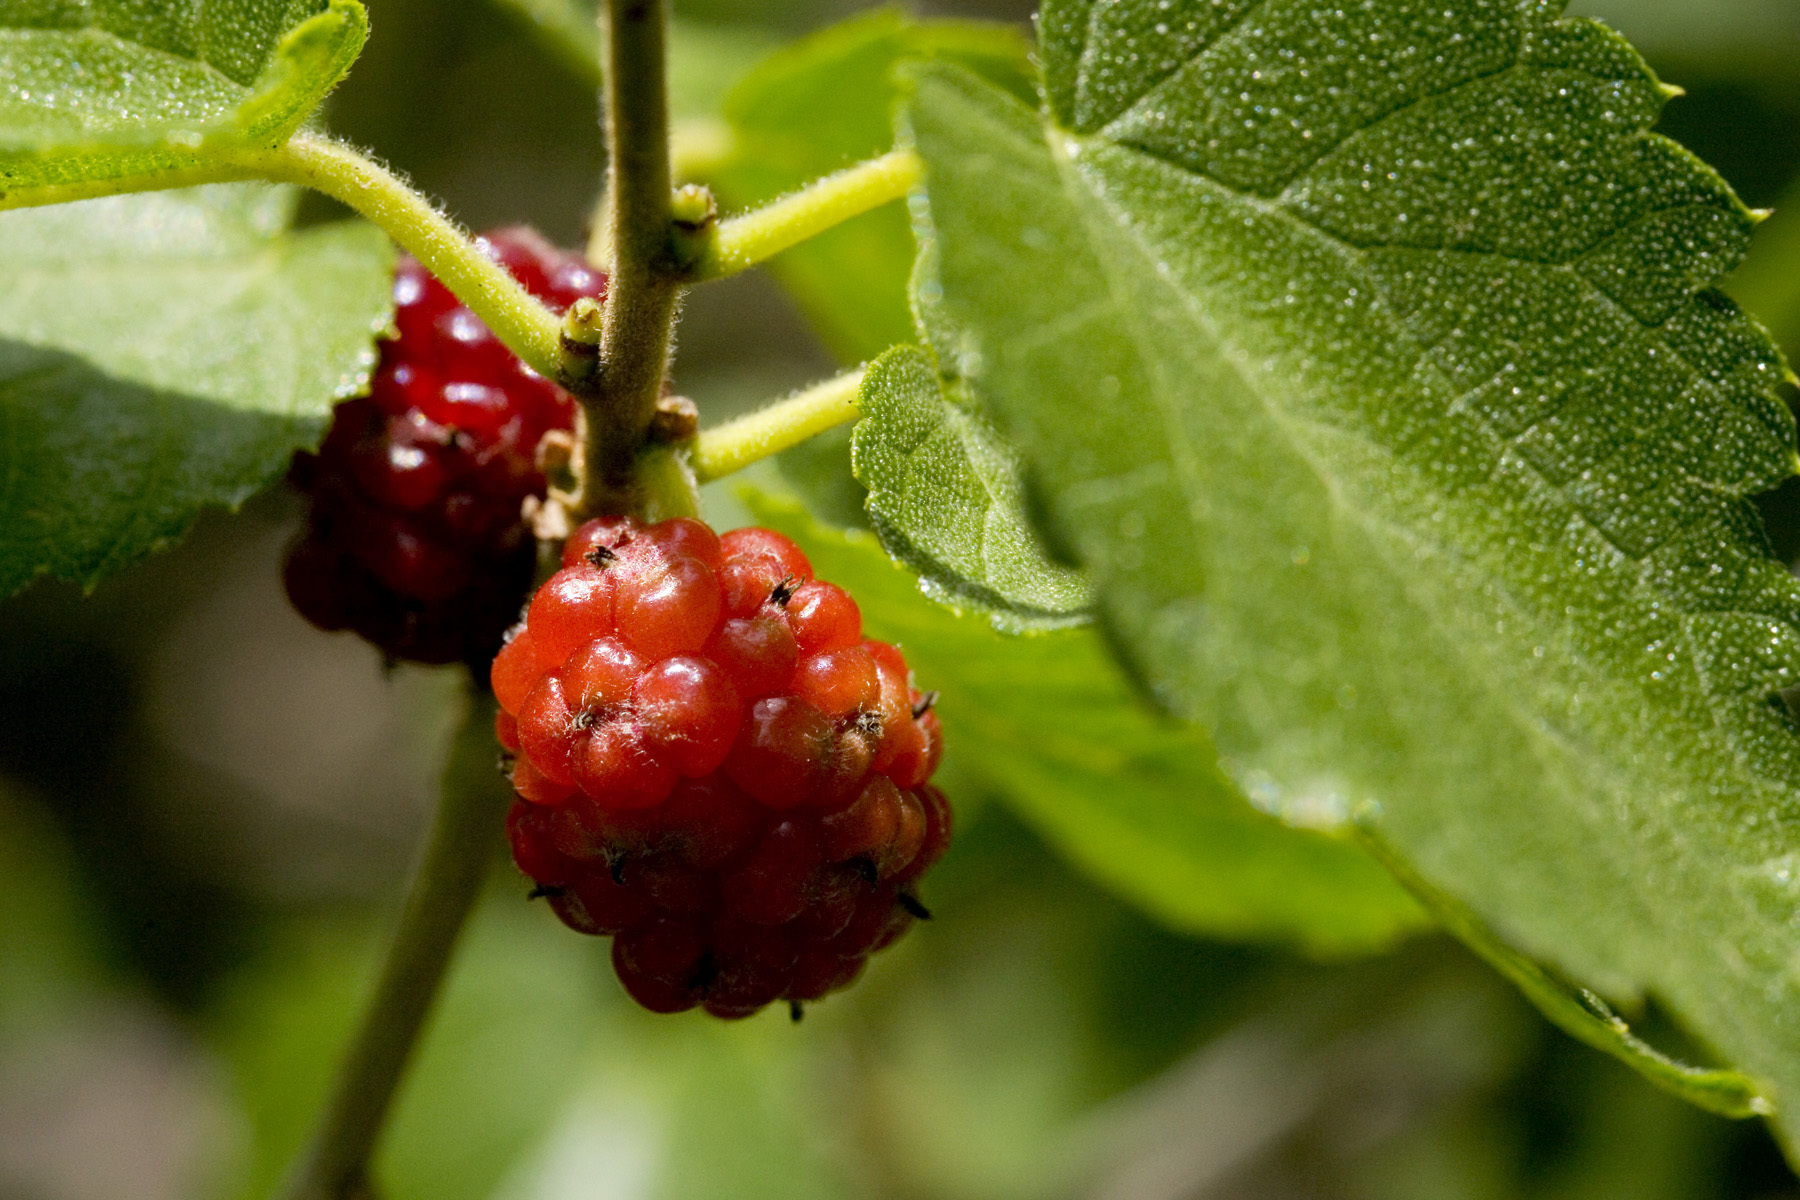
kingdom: Plantae
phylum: Tracheophyta
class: Magnoliopsida
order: Rosales
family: Moraceae
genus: Morus
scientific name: Morus microphylla
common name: Mexican mulberry
